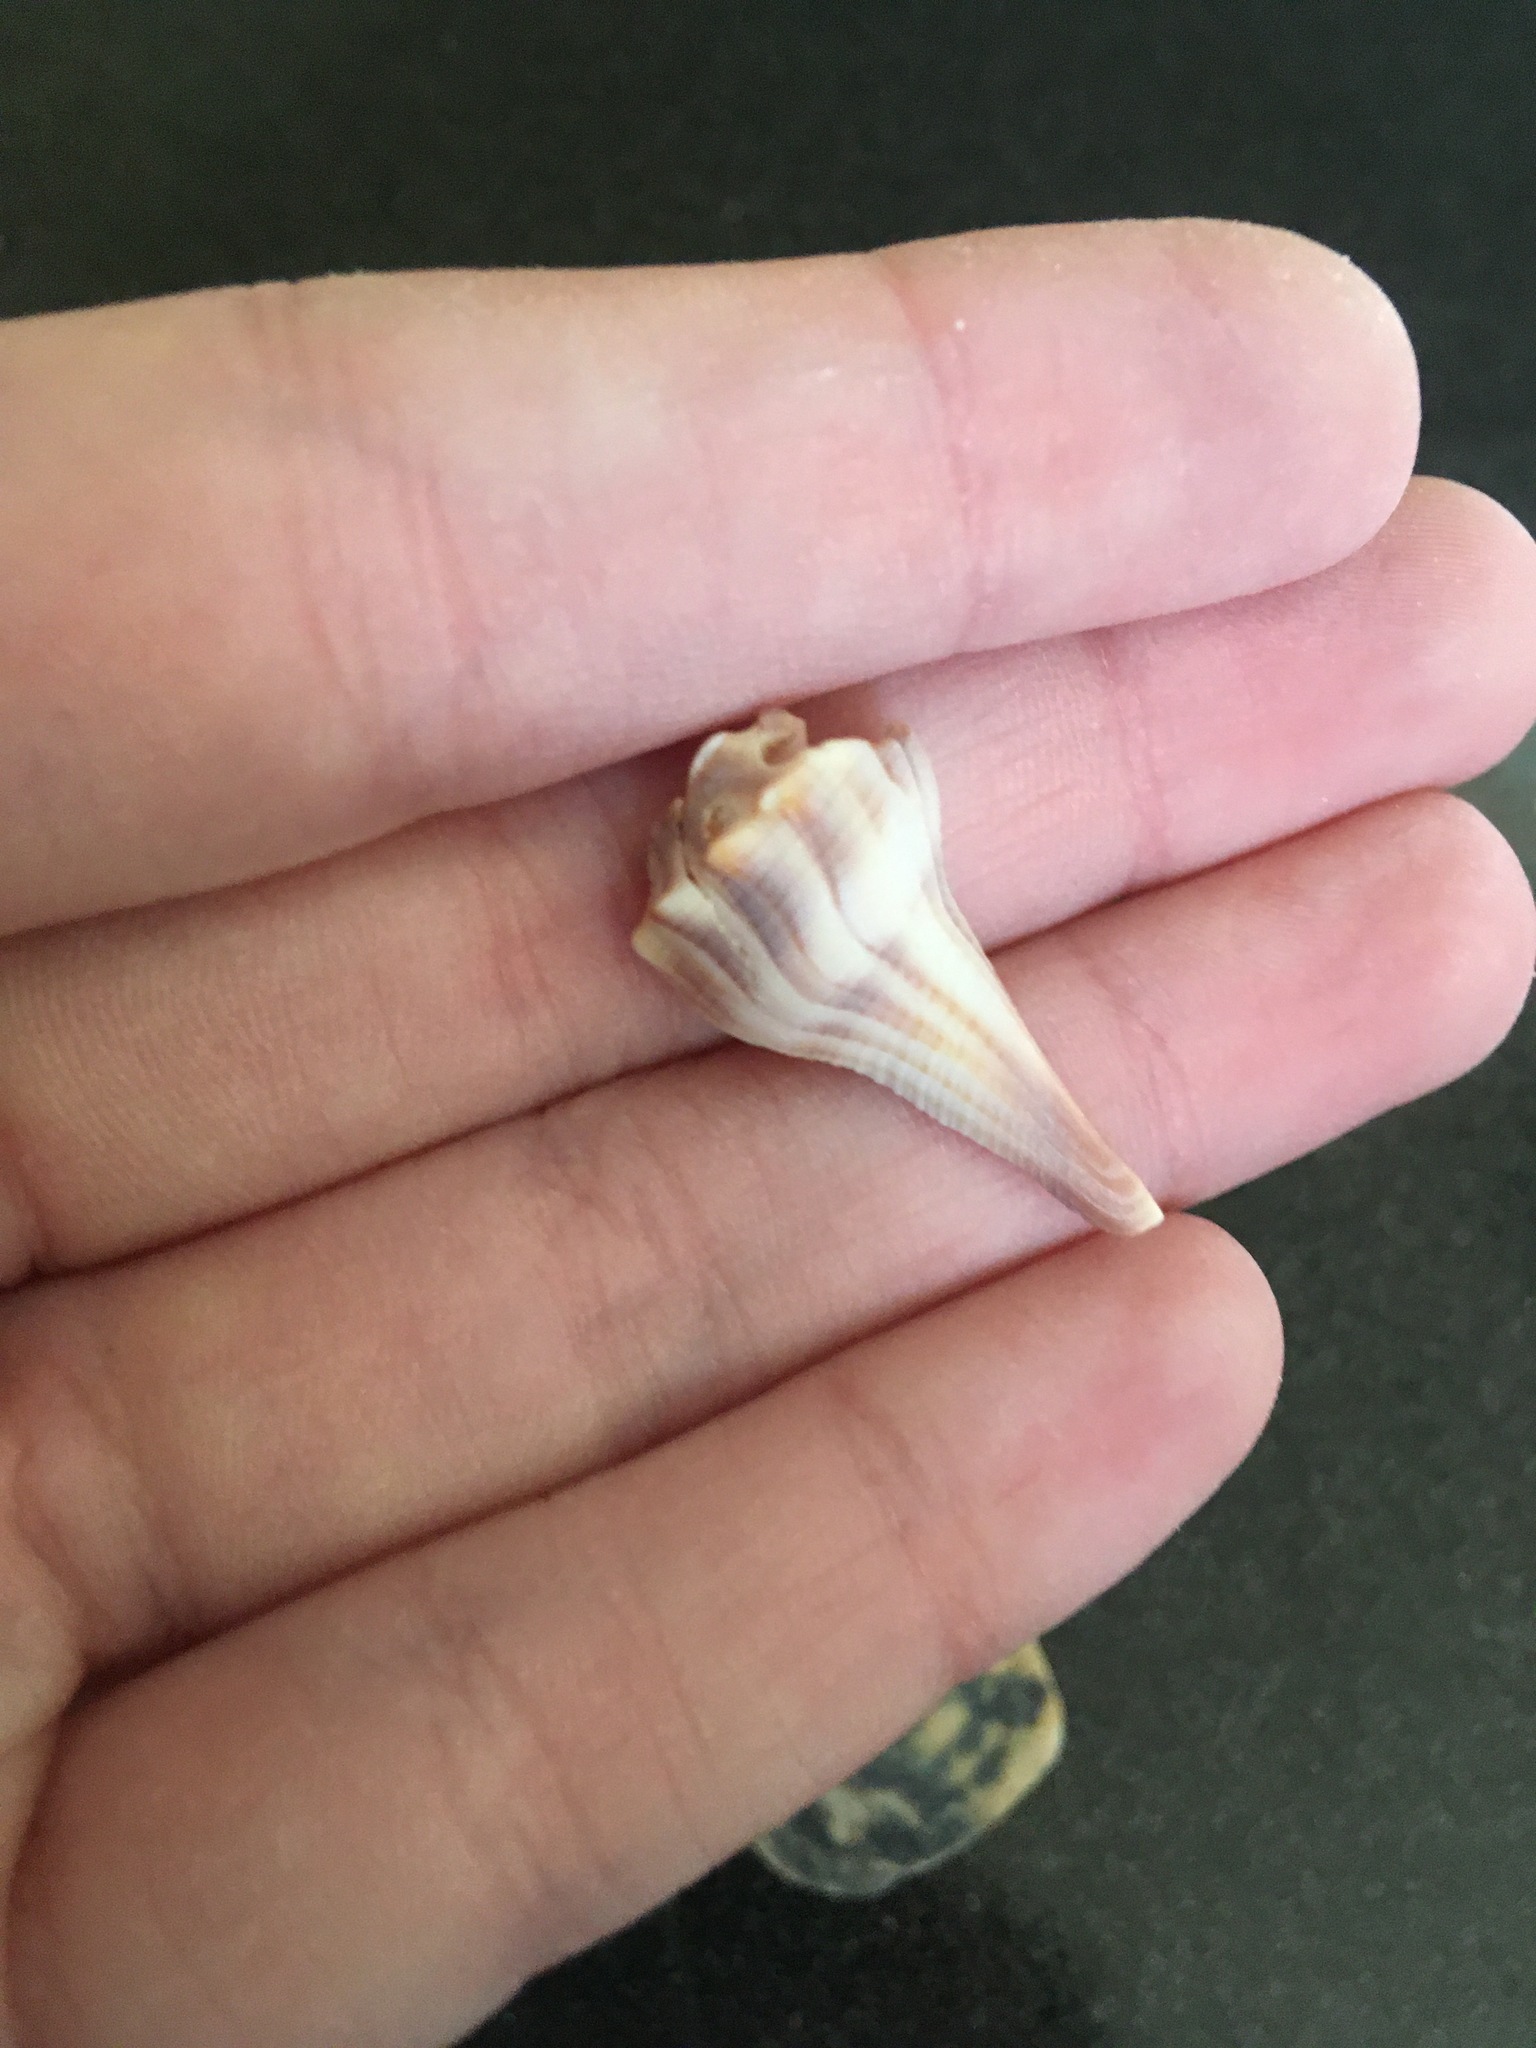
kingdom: Animalia
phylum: Mollusca
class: Gastropoda
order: Neogastropoda
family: Busyconidae
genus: Busycon
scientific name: Busycon carica
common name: Knobbed whelk
